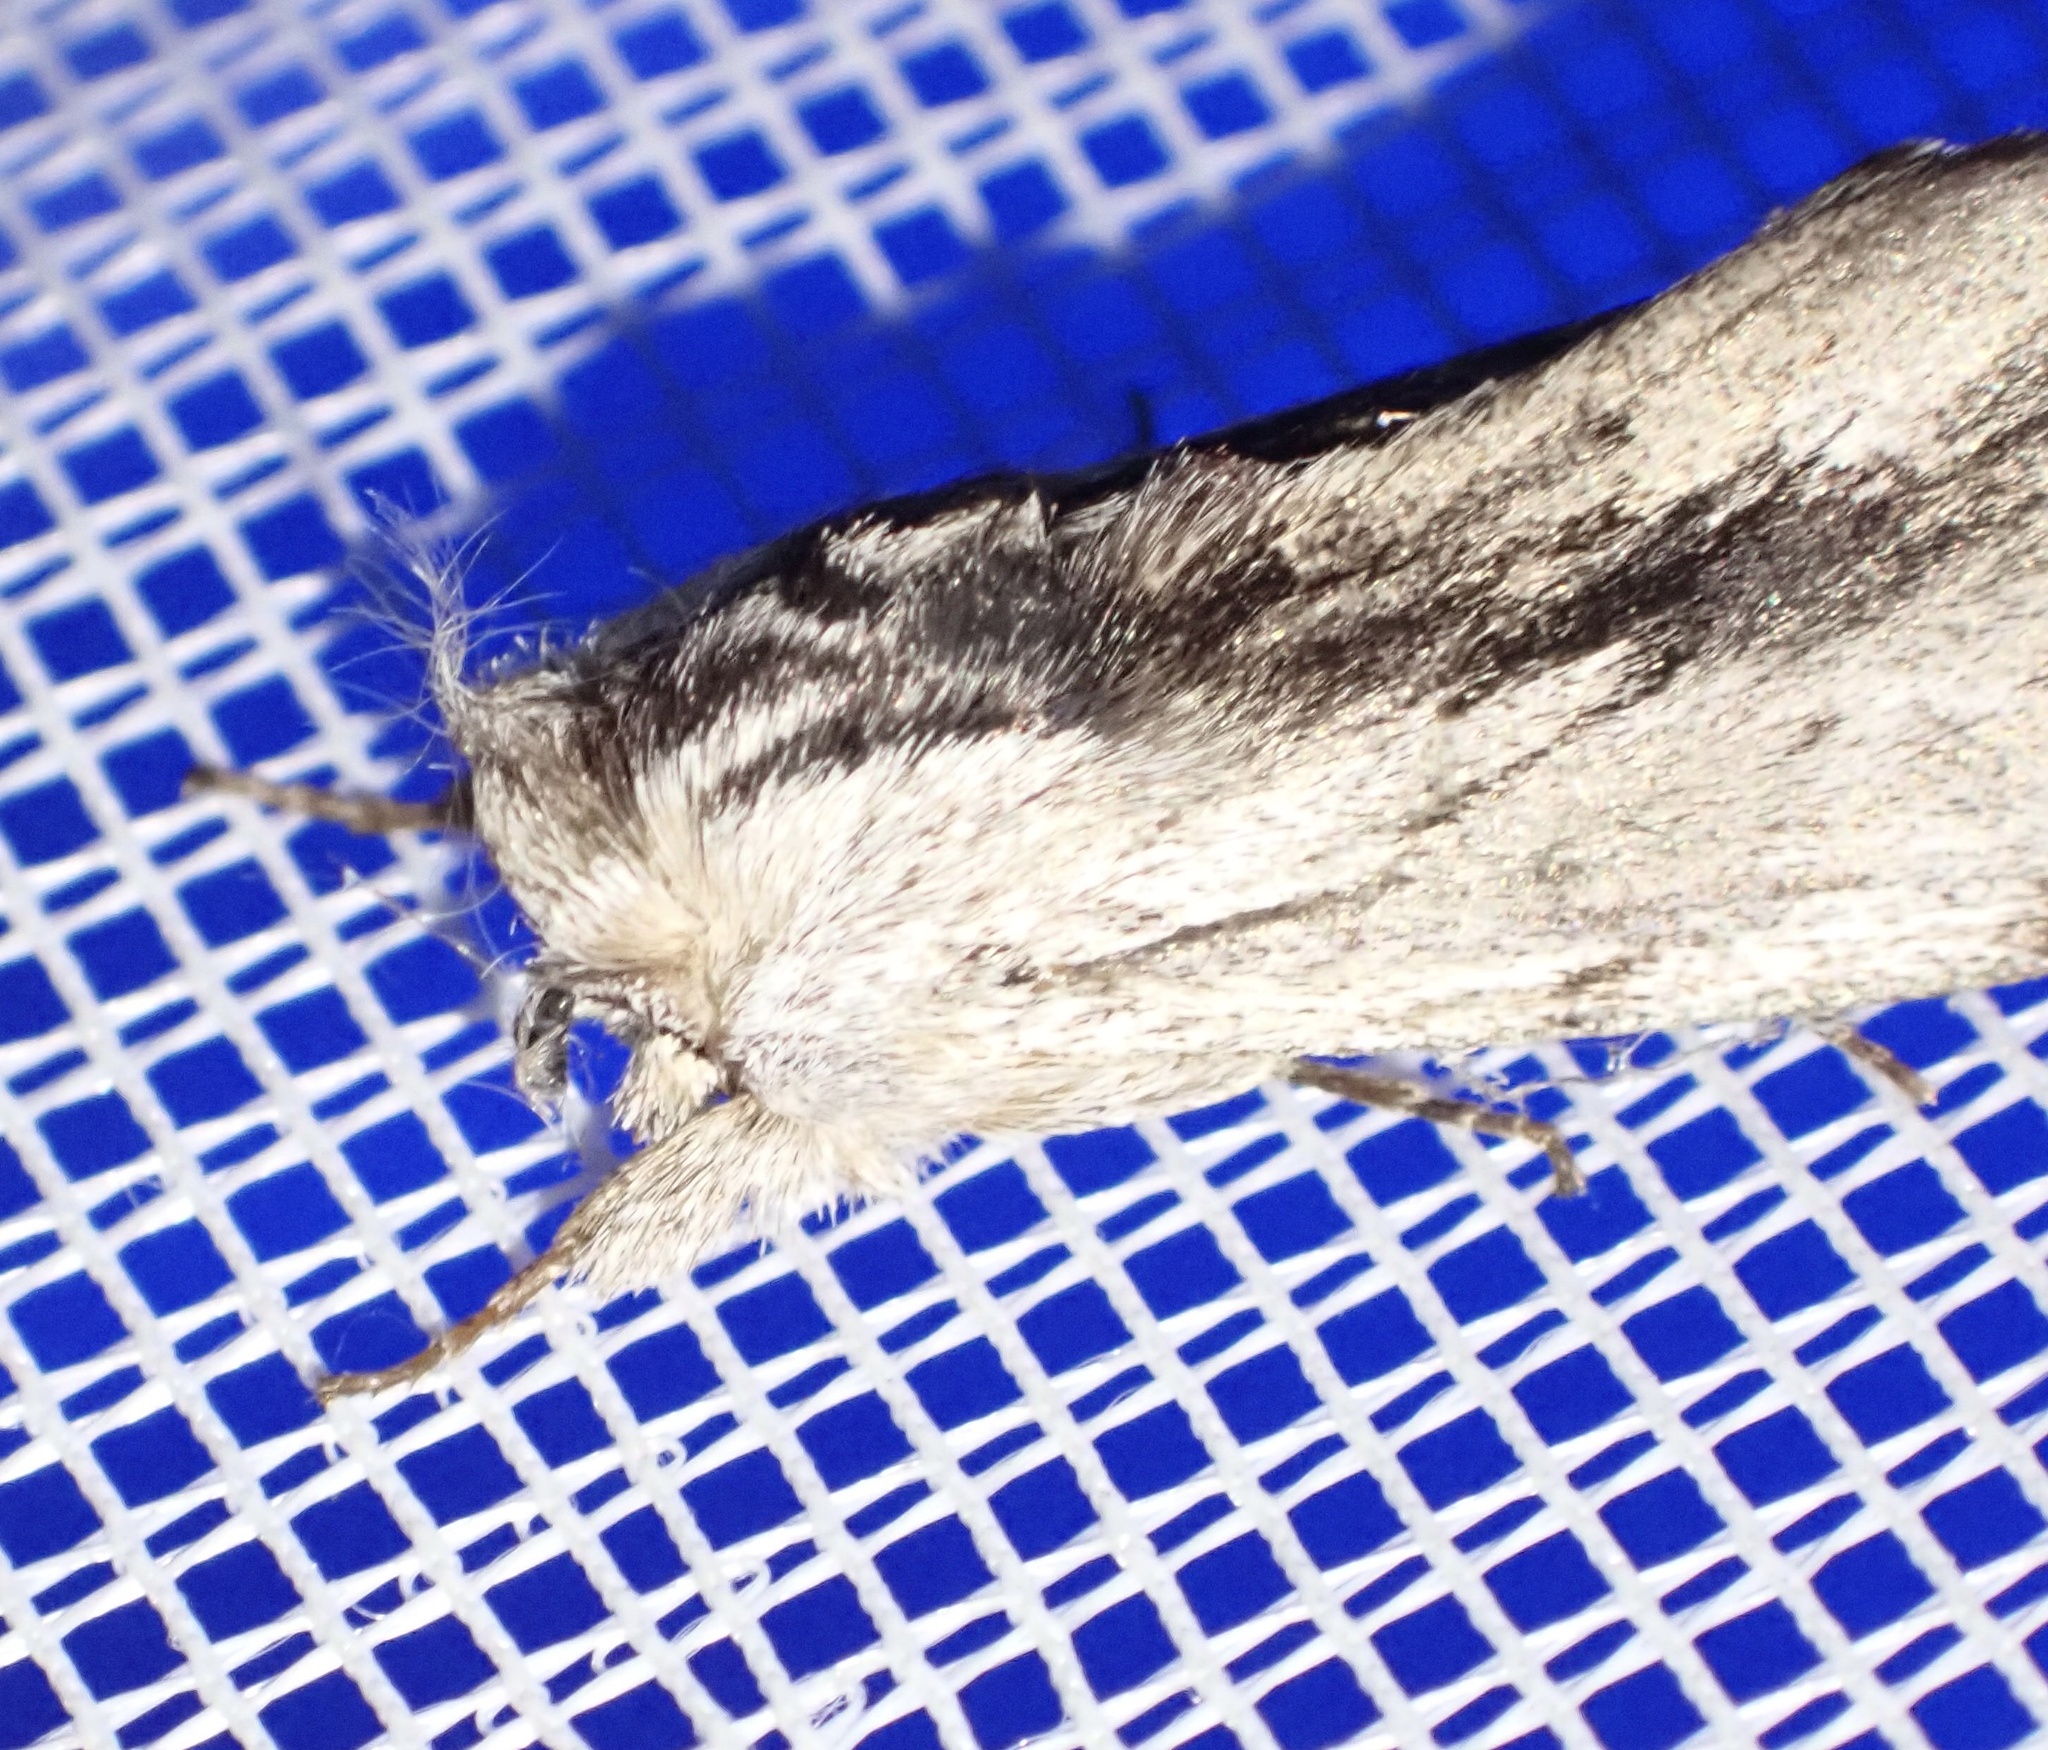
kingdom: Animalia
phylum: Arthropoda
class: Insecta
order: Lepidoptera
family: Notodontidae
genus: Destolmia
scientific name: Destolmia lineata
